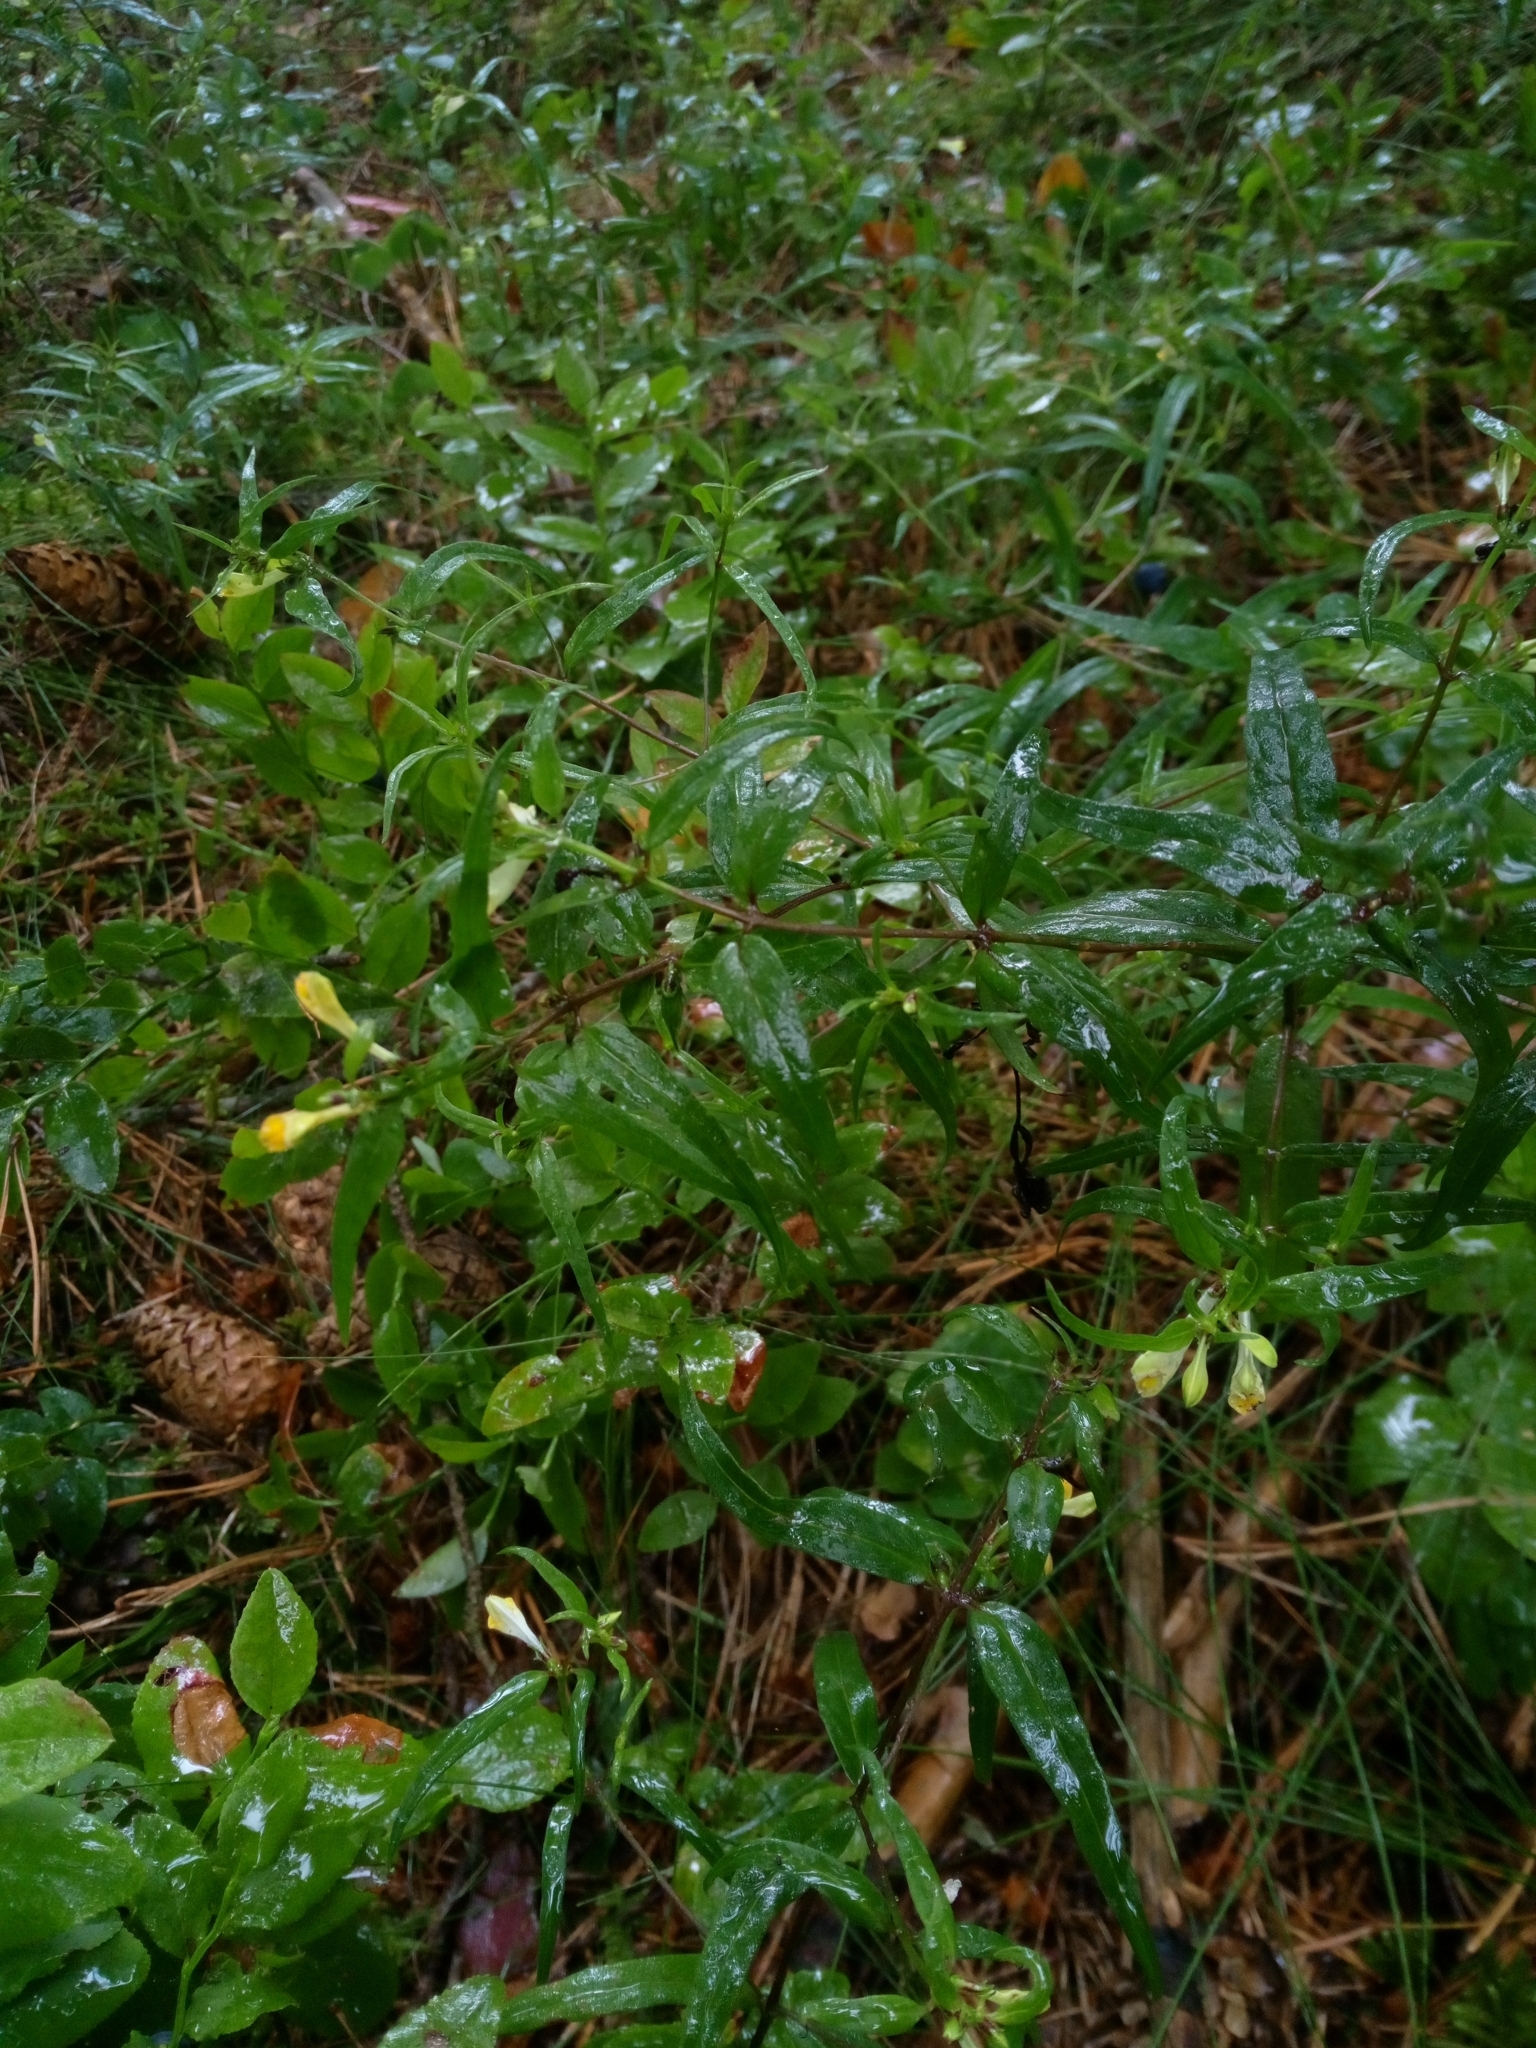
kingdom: Plantae
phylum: Tracheophyta
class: Magnoliopsida
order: Lamiales
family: Orobanchaceae
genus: Melampyrum
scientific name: Melampyrum pratense
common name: Common cow-wheat
